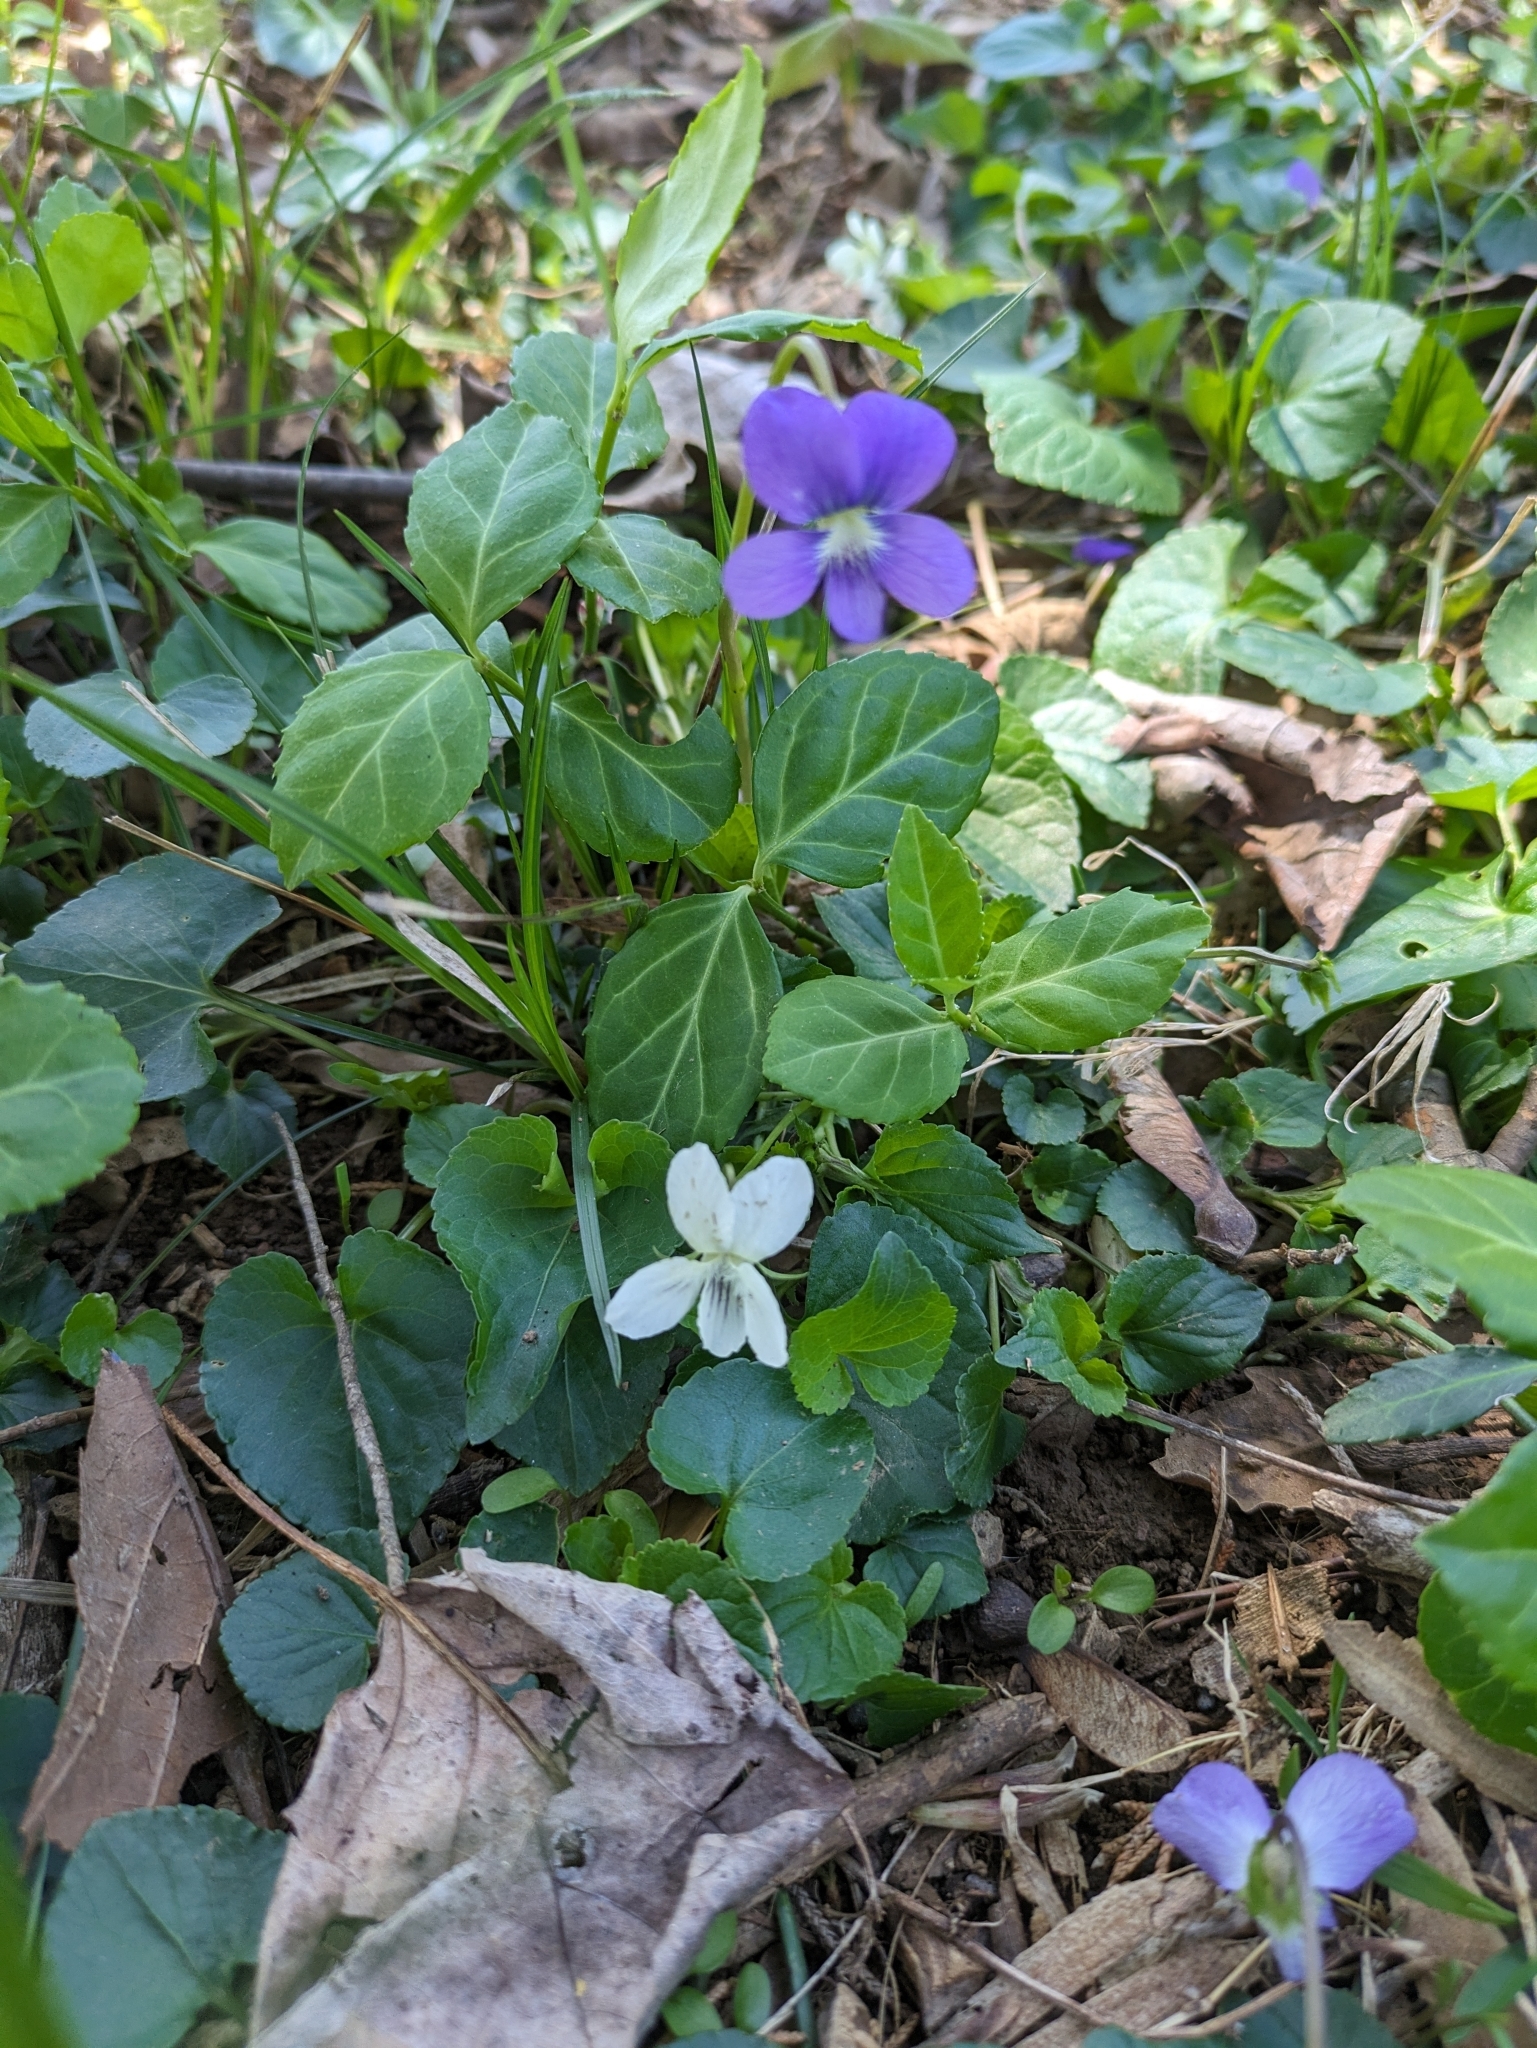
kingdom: Plantae
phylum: Tracheophyta
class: Magnoliopsida
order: Malpighiales
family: Violaceae
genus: Viola
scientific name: Viola striata
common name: Cream violet
